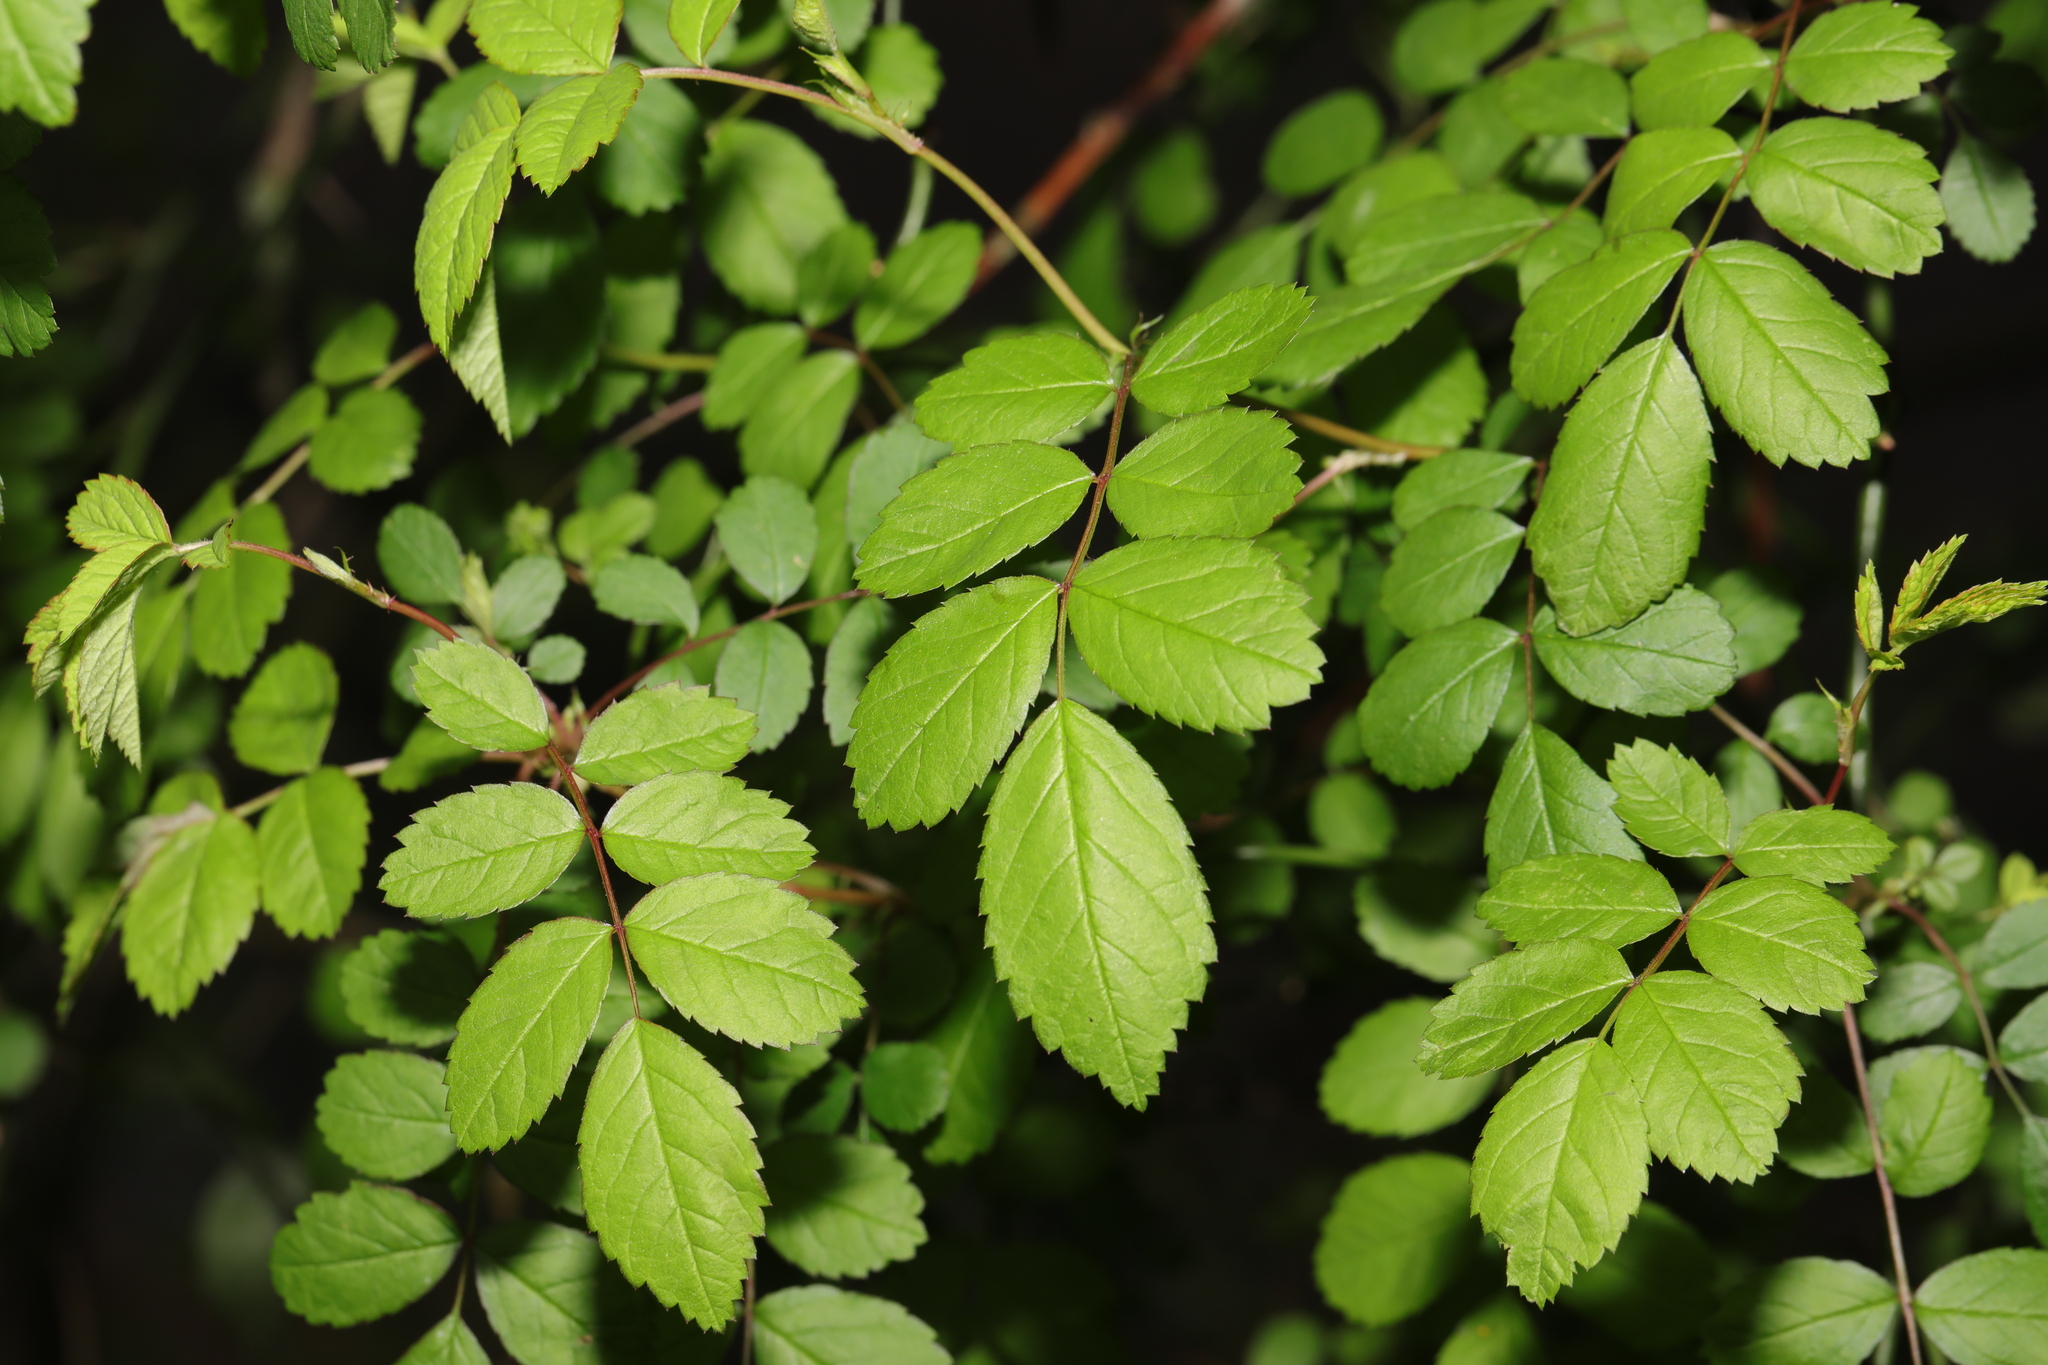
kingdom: Plantae
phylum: Tracheophyta
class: Magnoliopsida
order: Rosales
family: Rosaceae
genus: Rosa
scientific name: Rosa multiflora
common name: Multiflora rose
